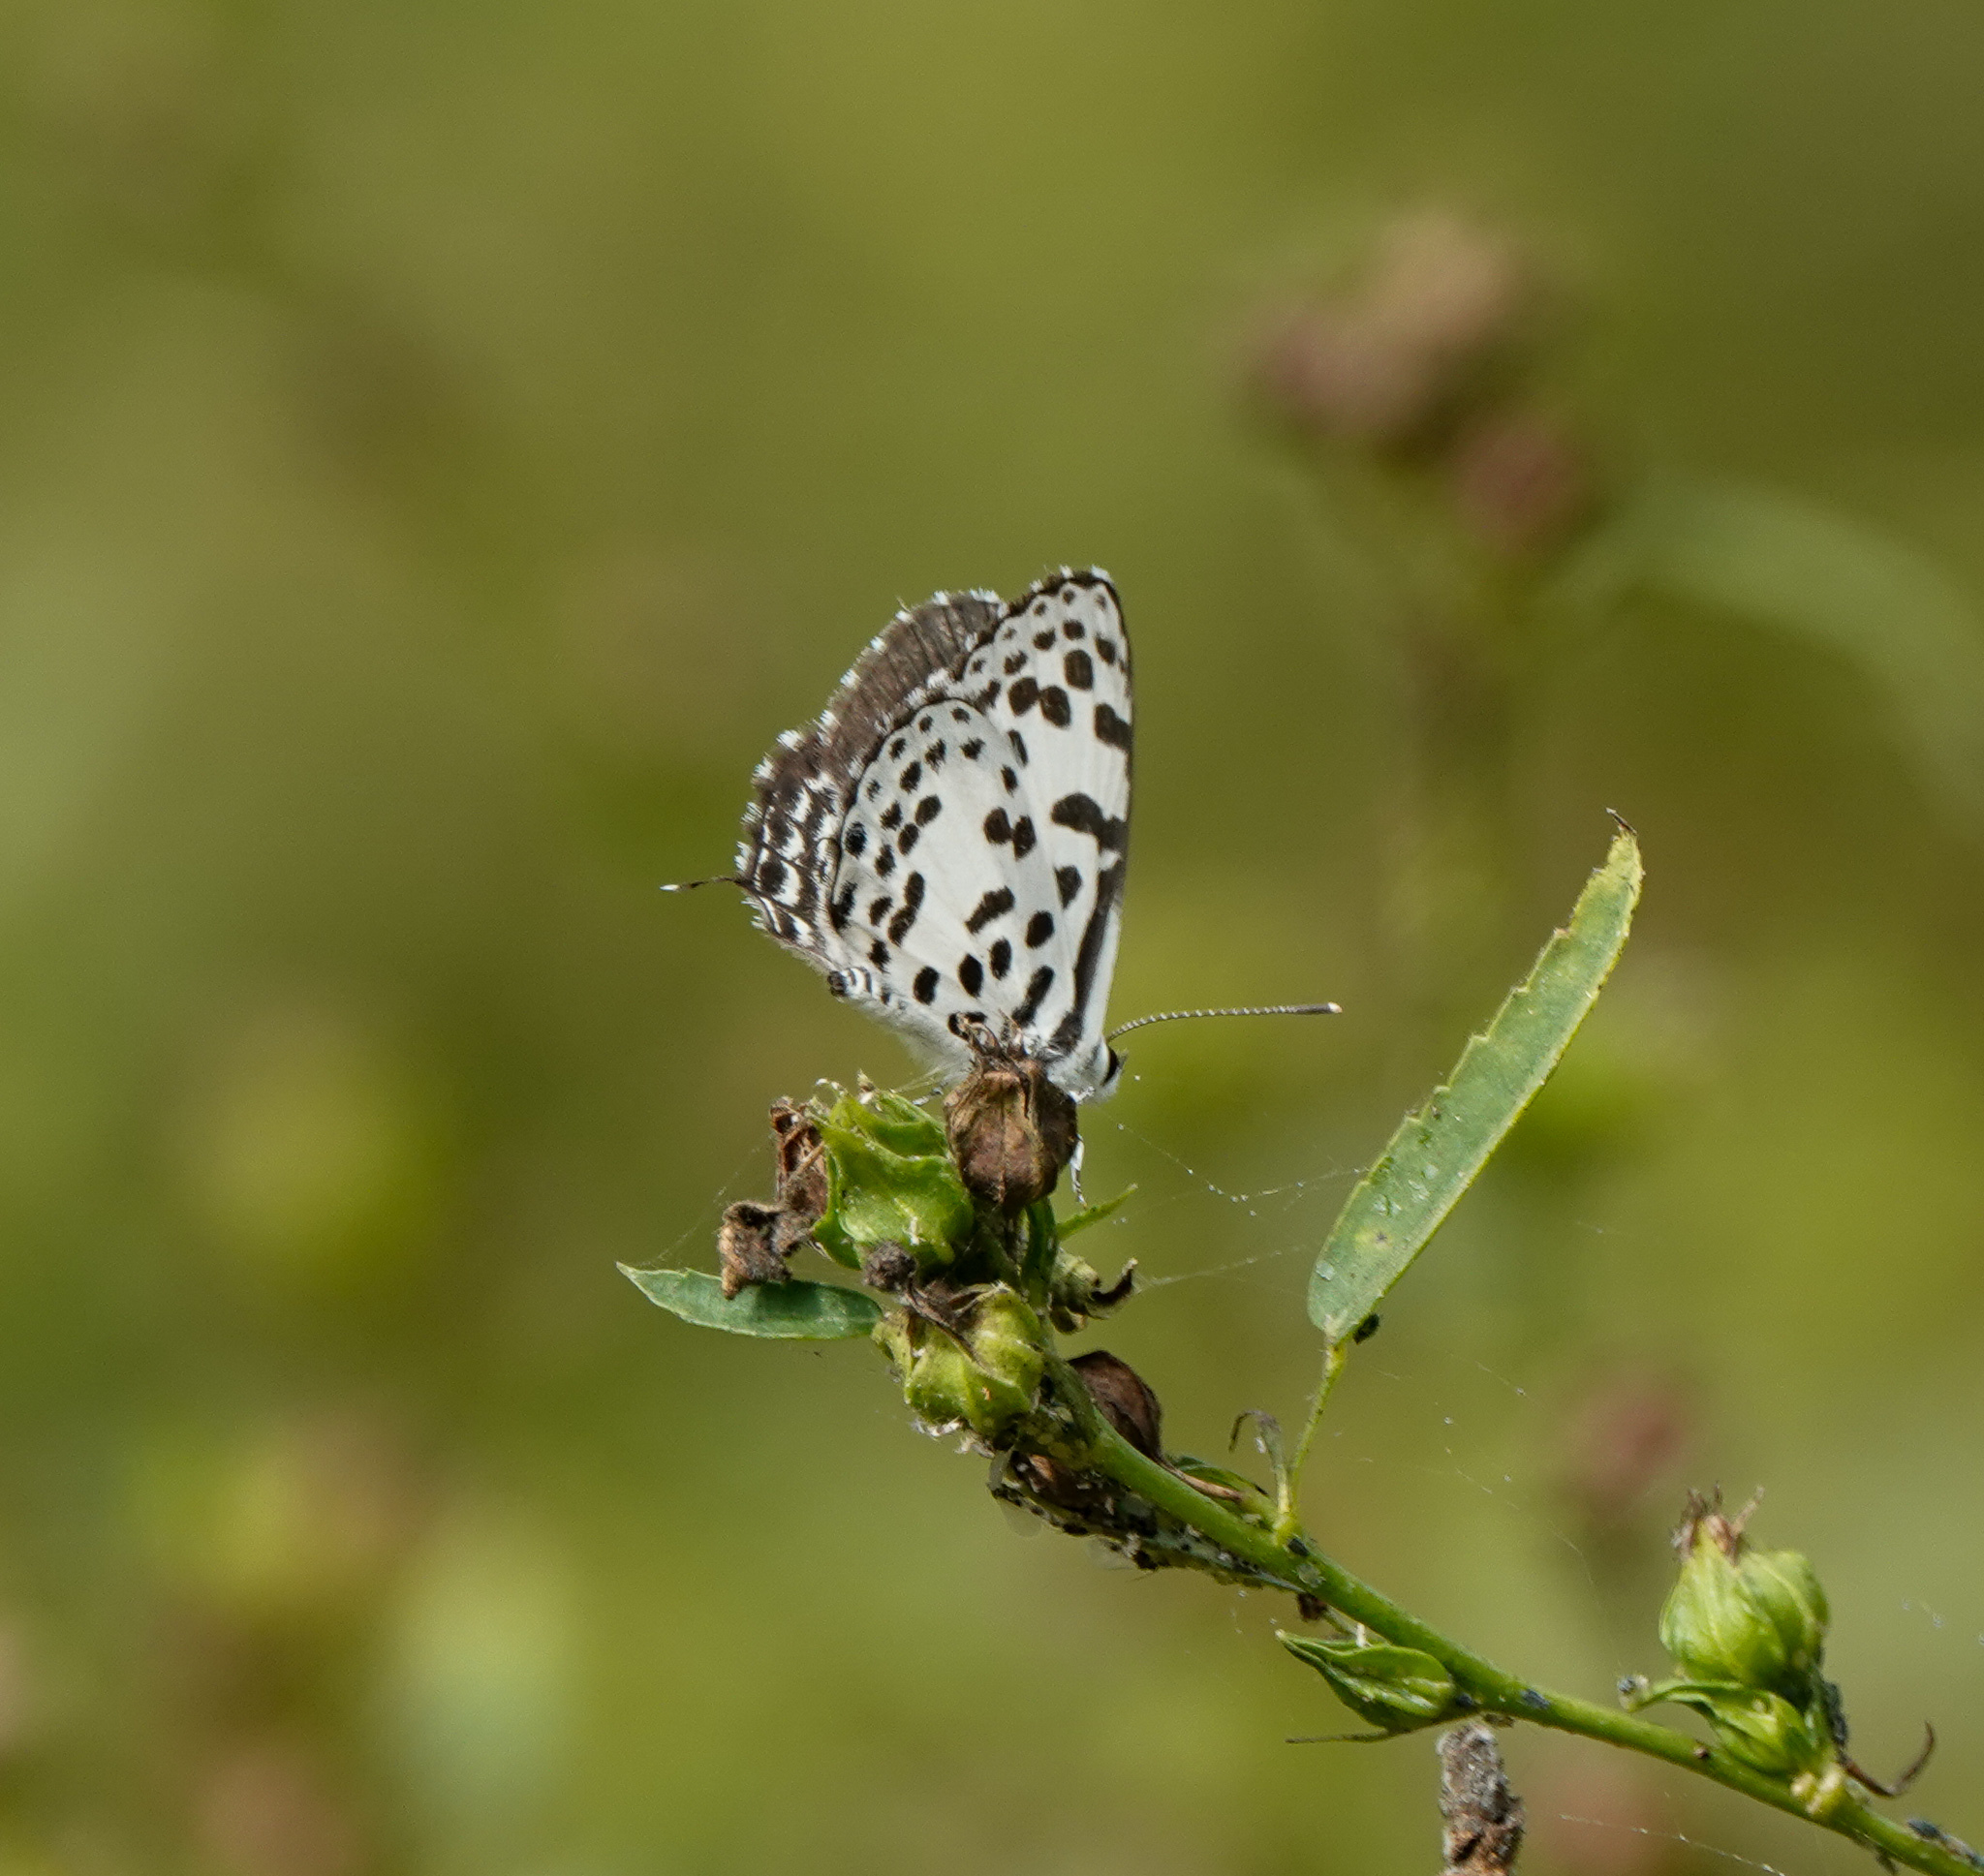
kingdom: Animalia
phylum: Arthropoda
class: Insecta
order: Lepidoptera
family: Lycaenidae
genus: Castalius
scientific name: Castalius rosimon
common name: Common pierrot
